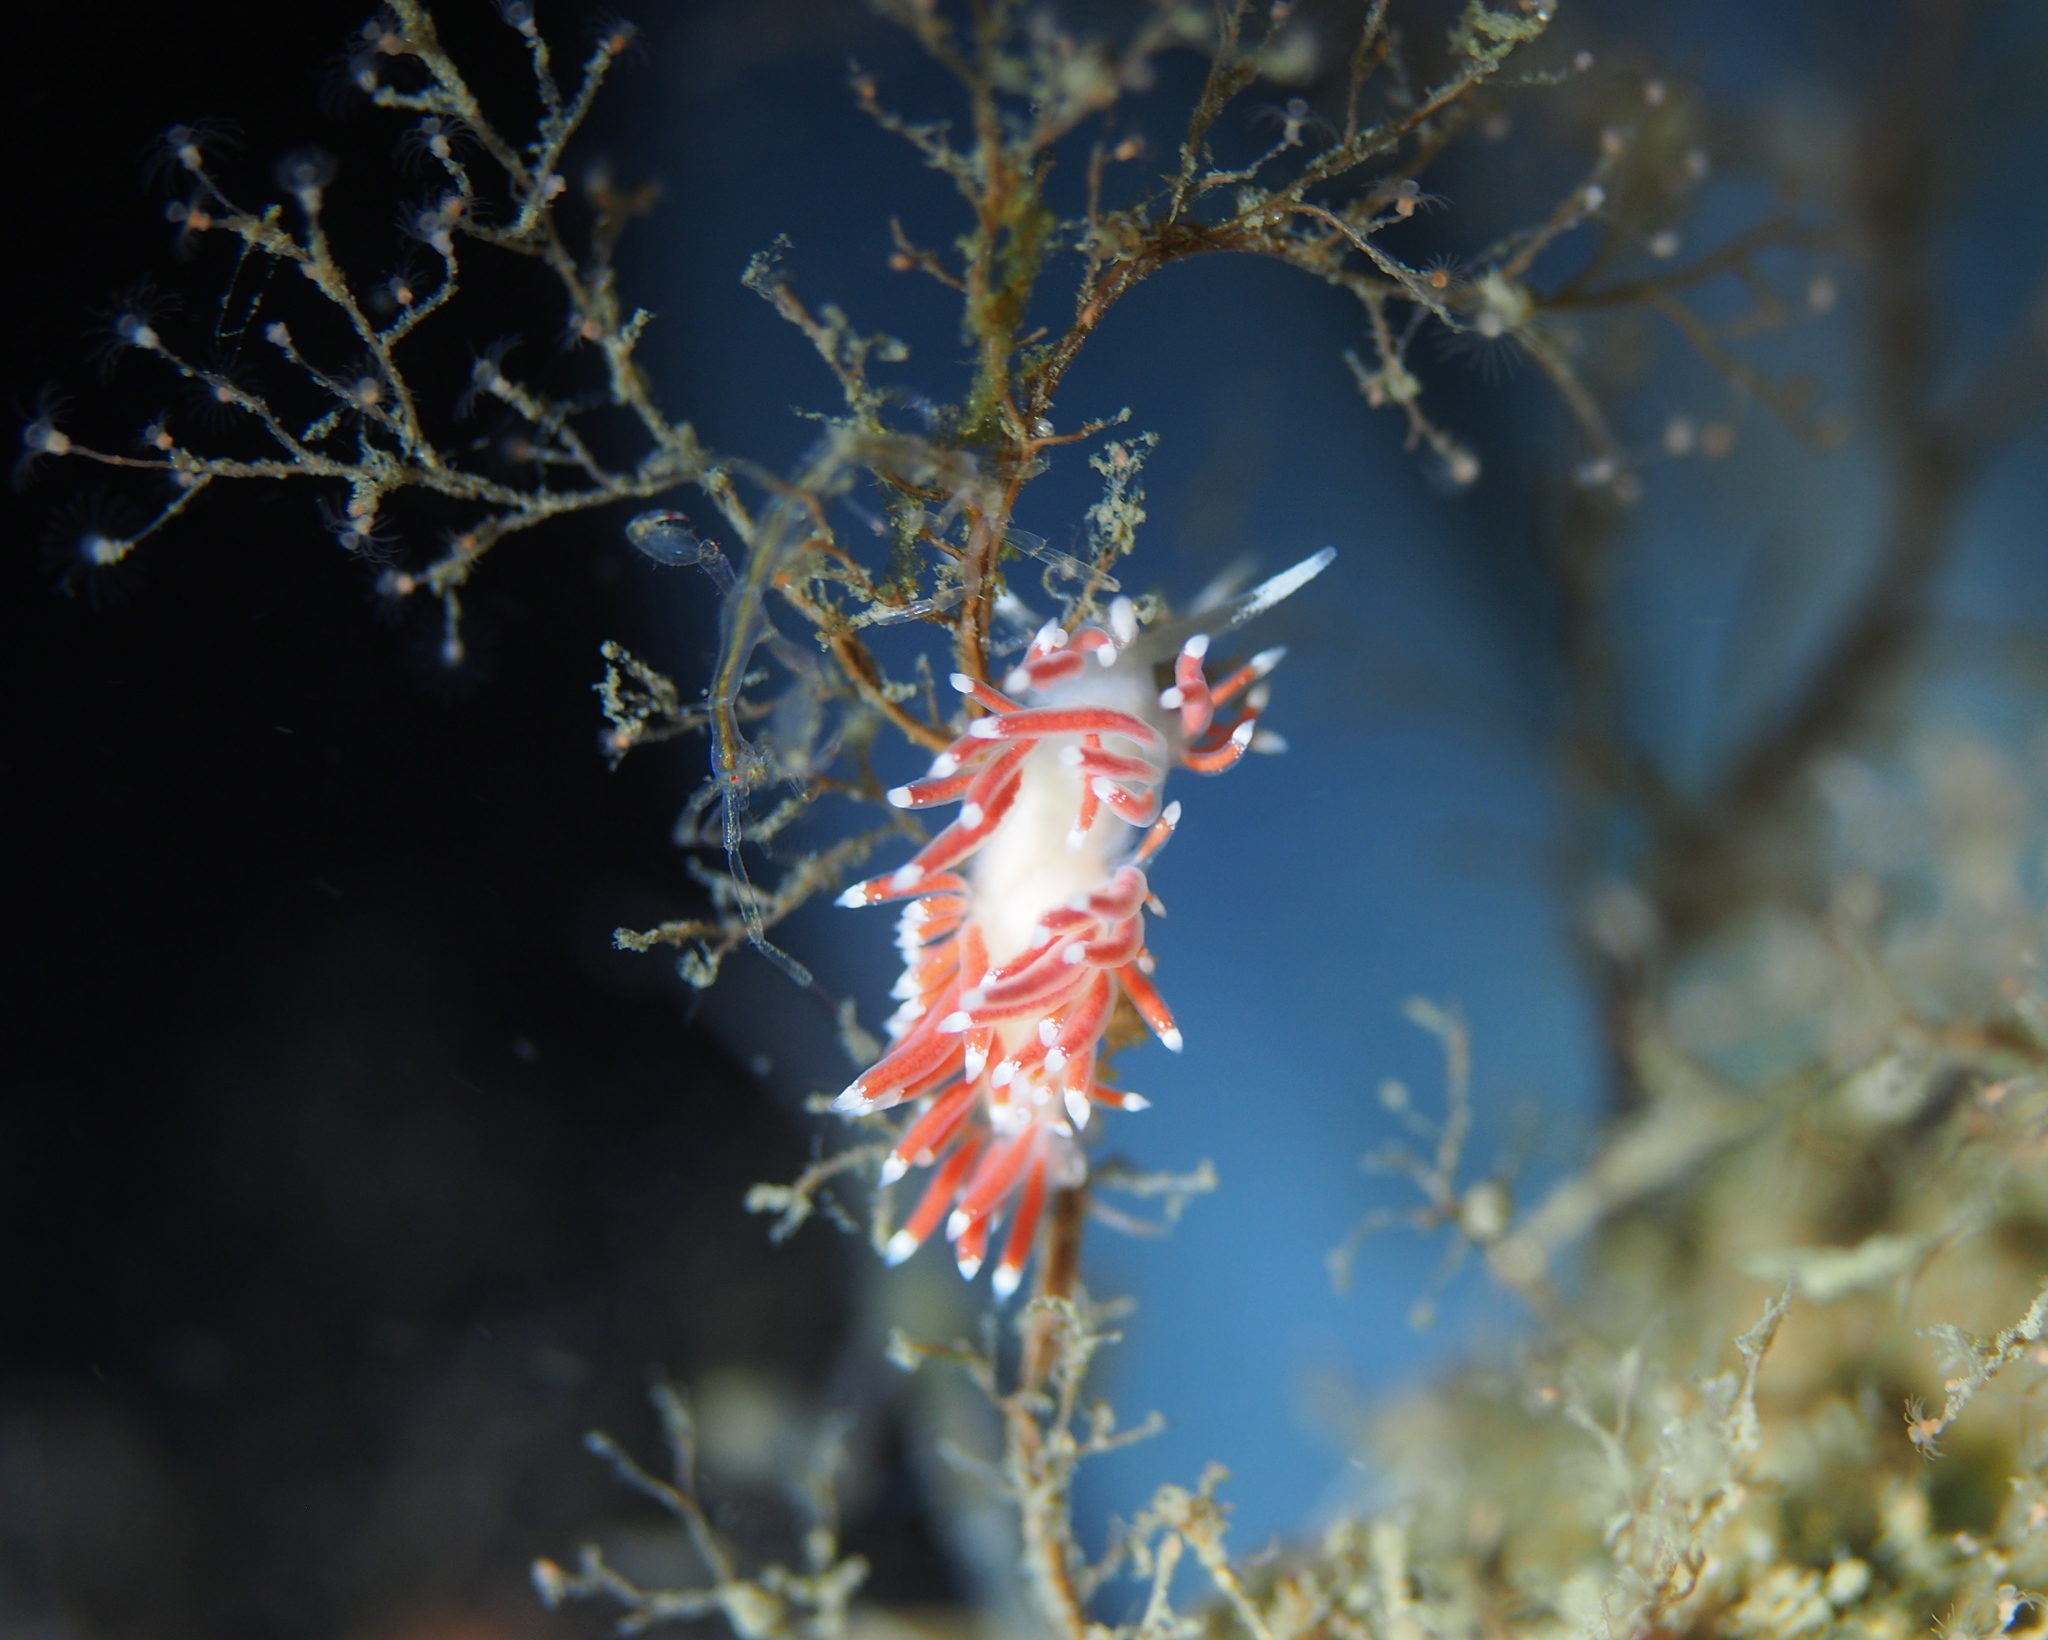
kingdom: Animalia
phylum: Mollusca
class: Gastropoda
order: Nudibranchia
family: Coryphellidae
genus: Coryphella
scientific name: Coryphella gracilis
